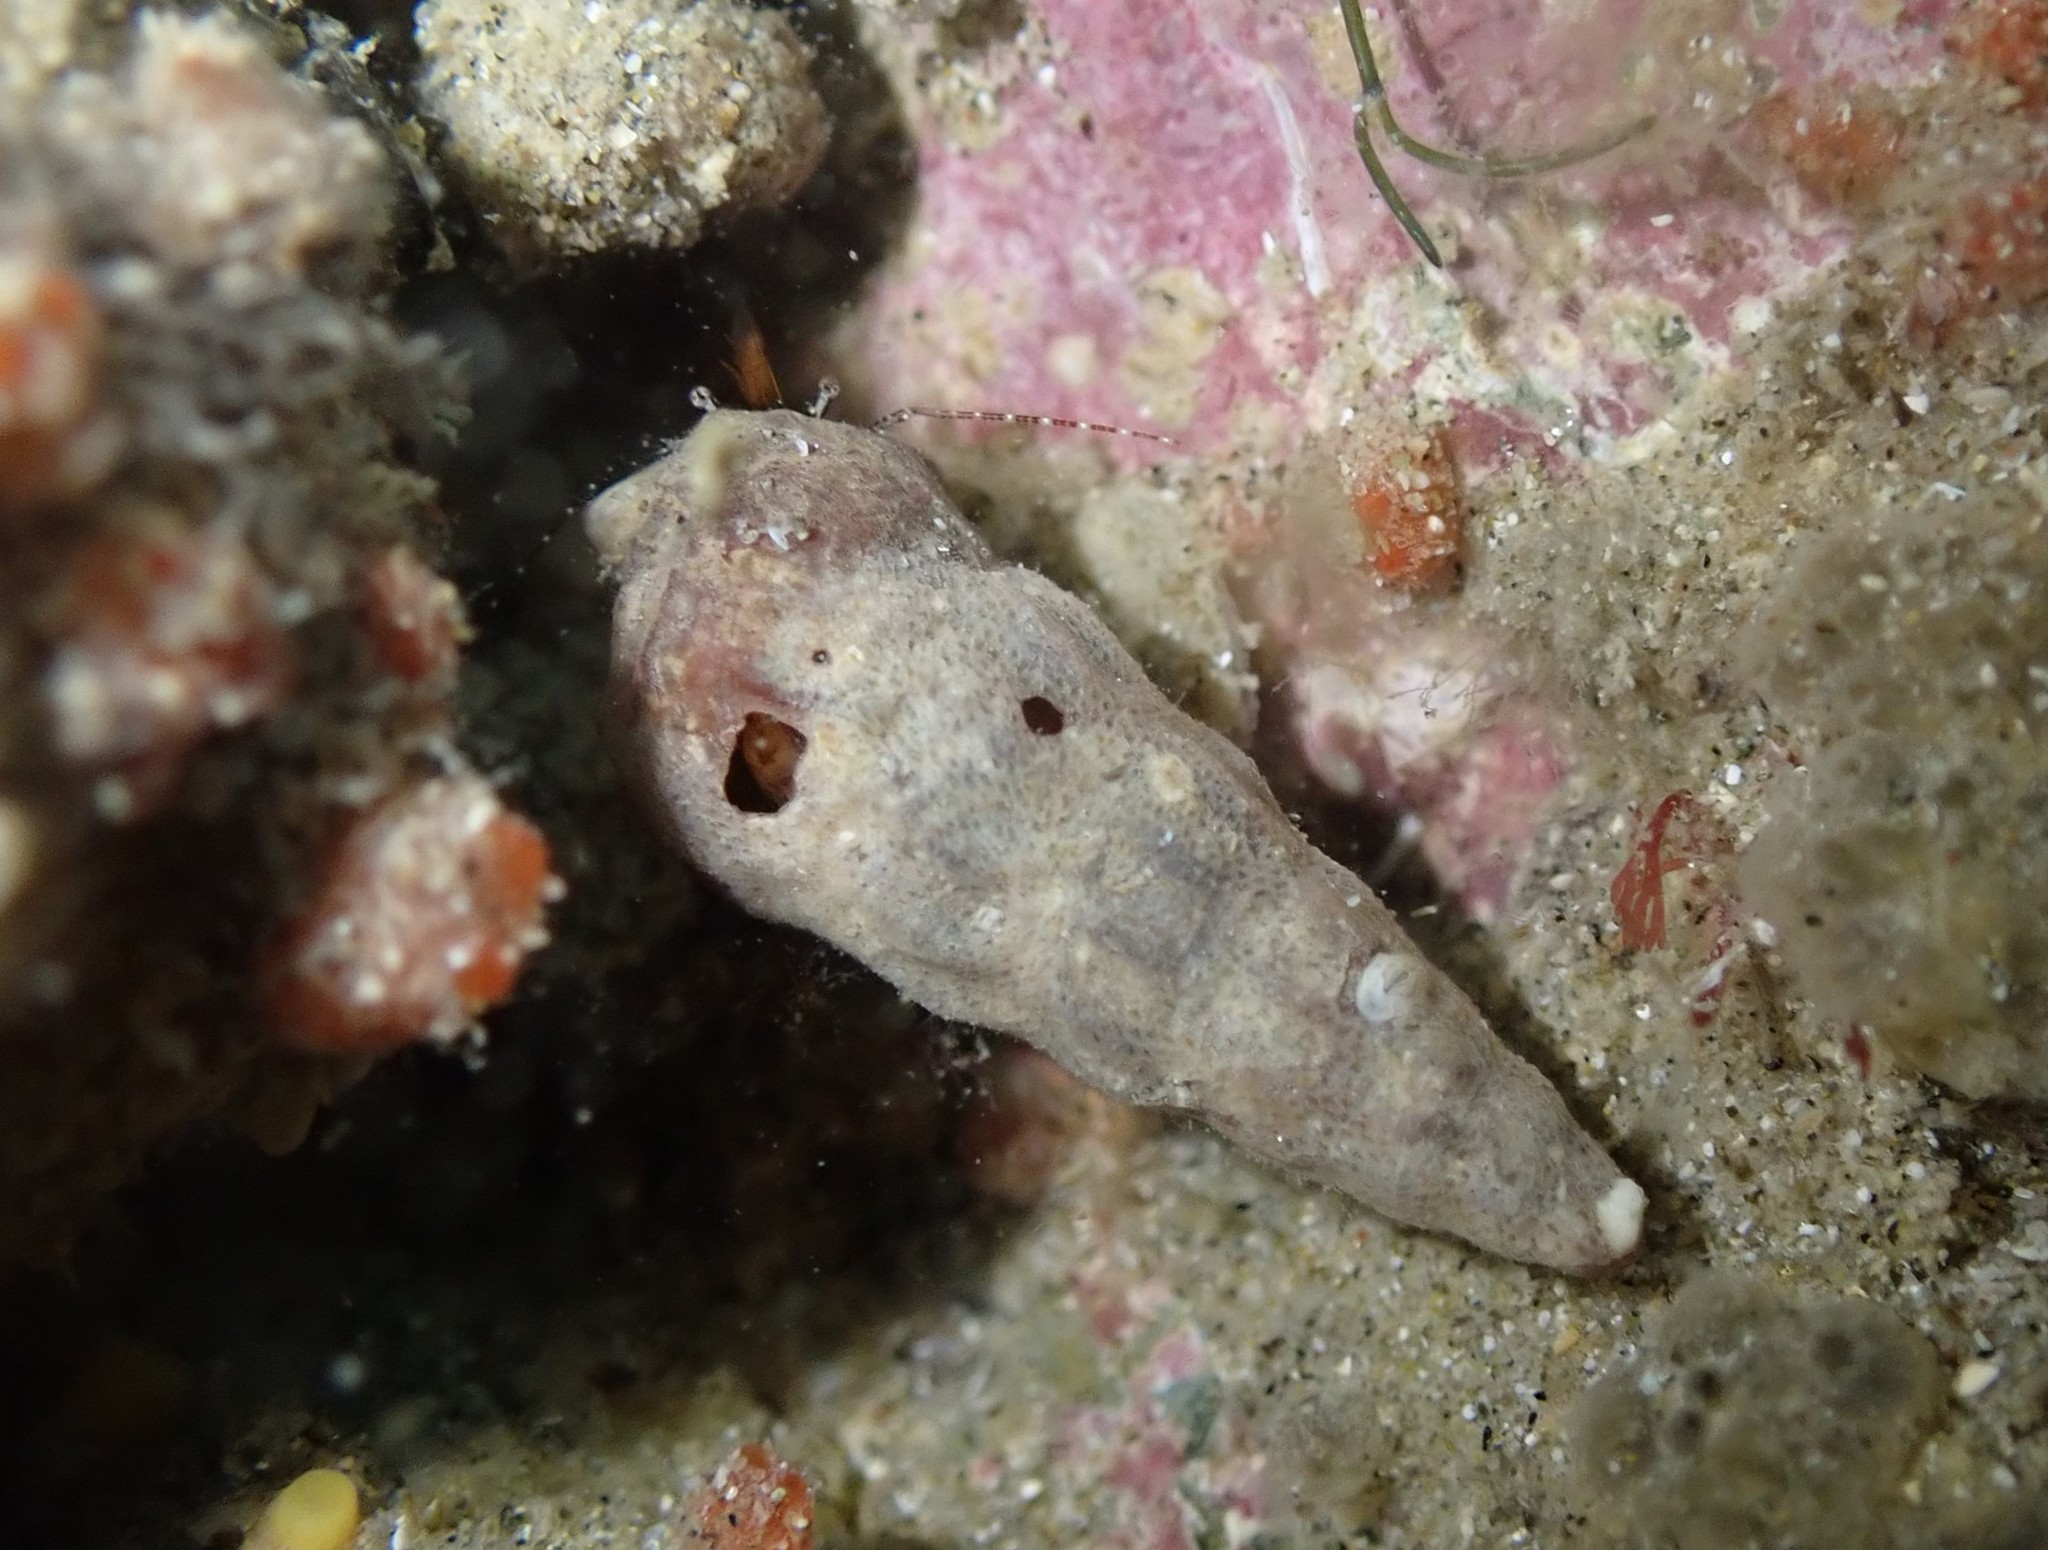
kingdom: Animalia
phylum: Arthropoda
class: Malacostraca
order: Decapoda
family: Paguridae
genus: Pagurus
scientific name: Pagurus traversi
